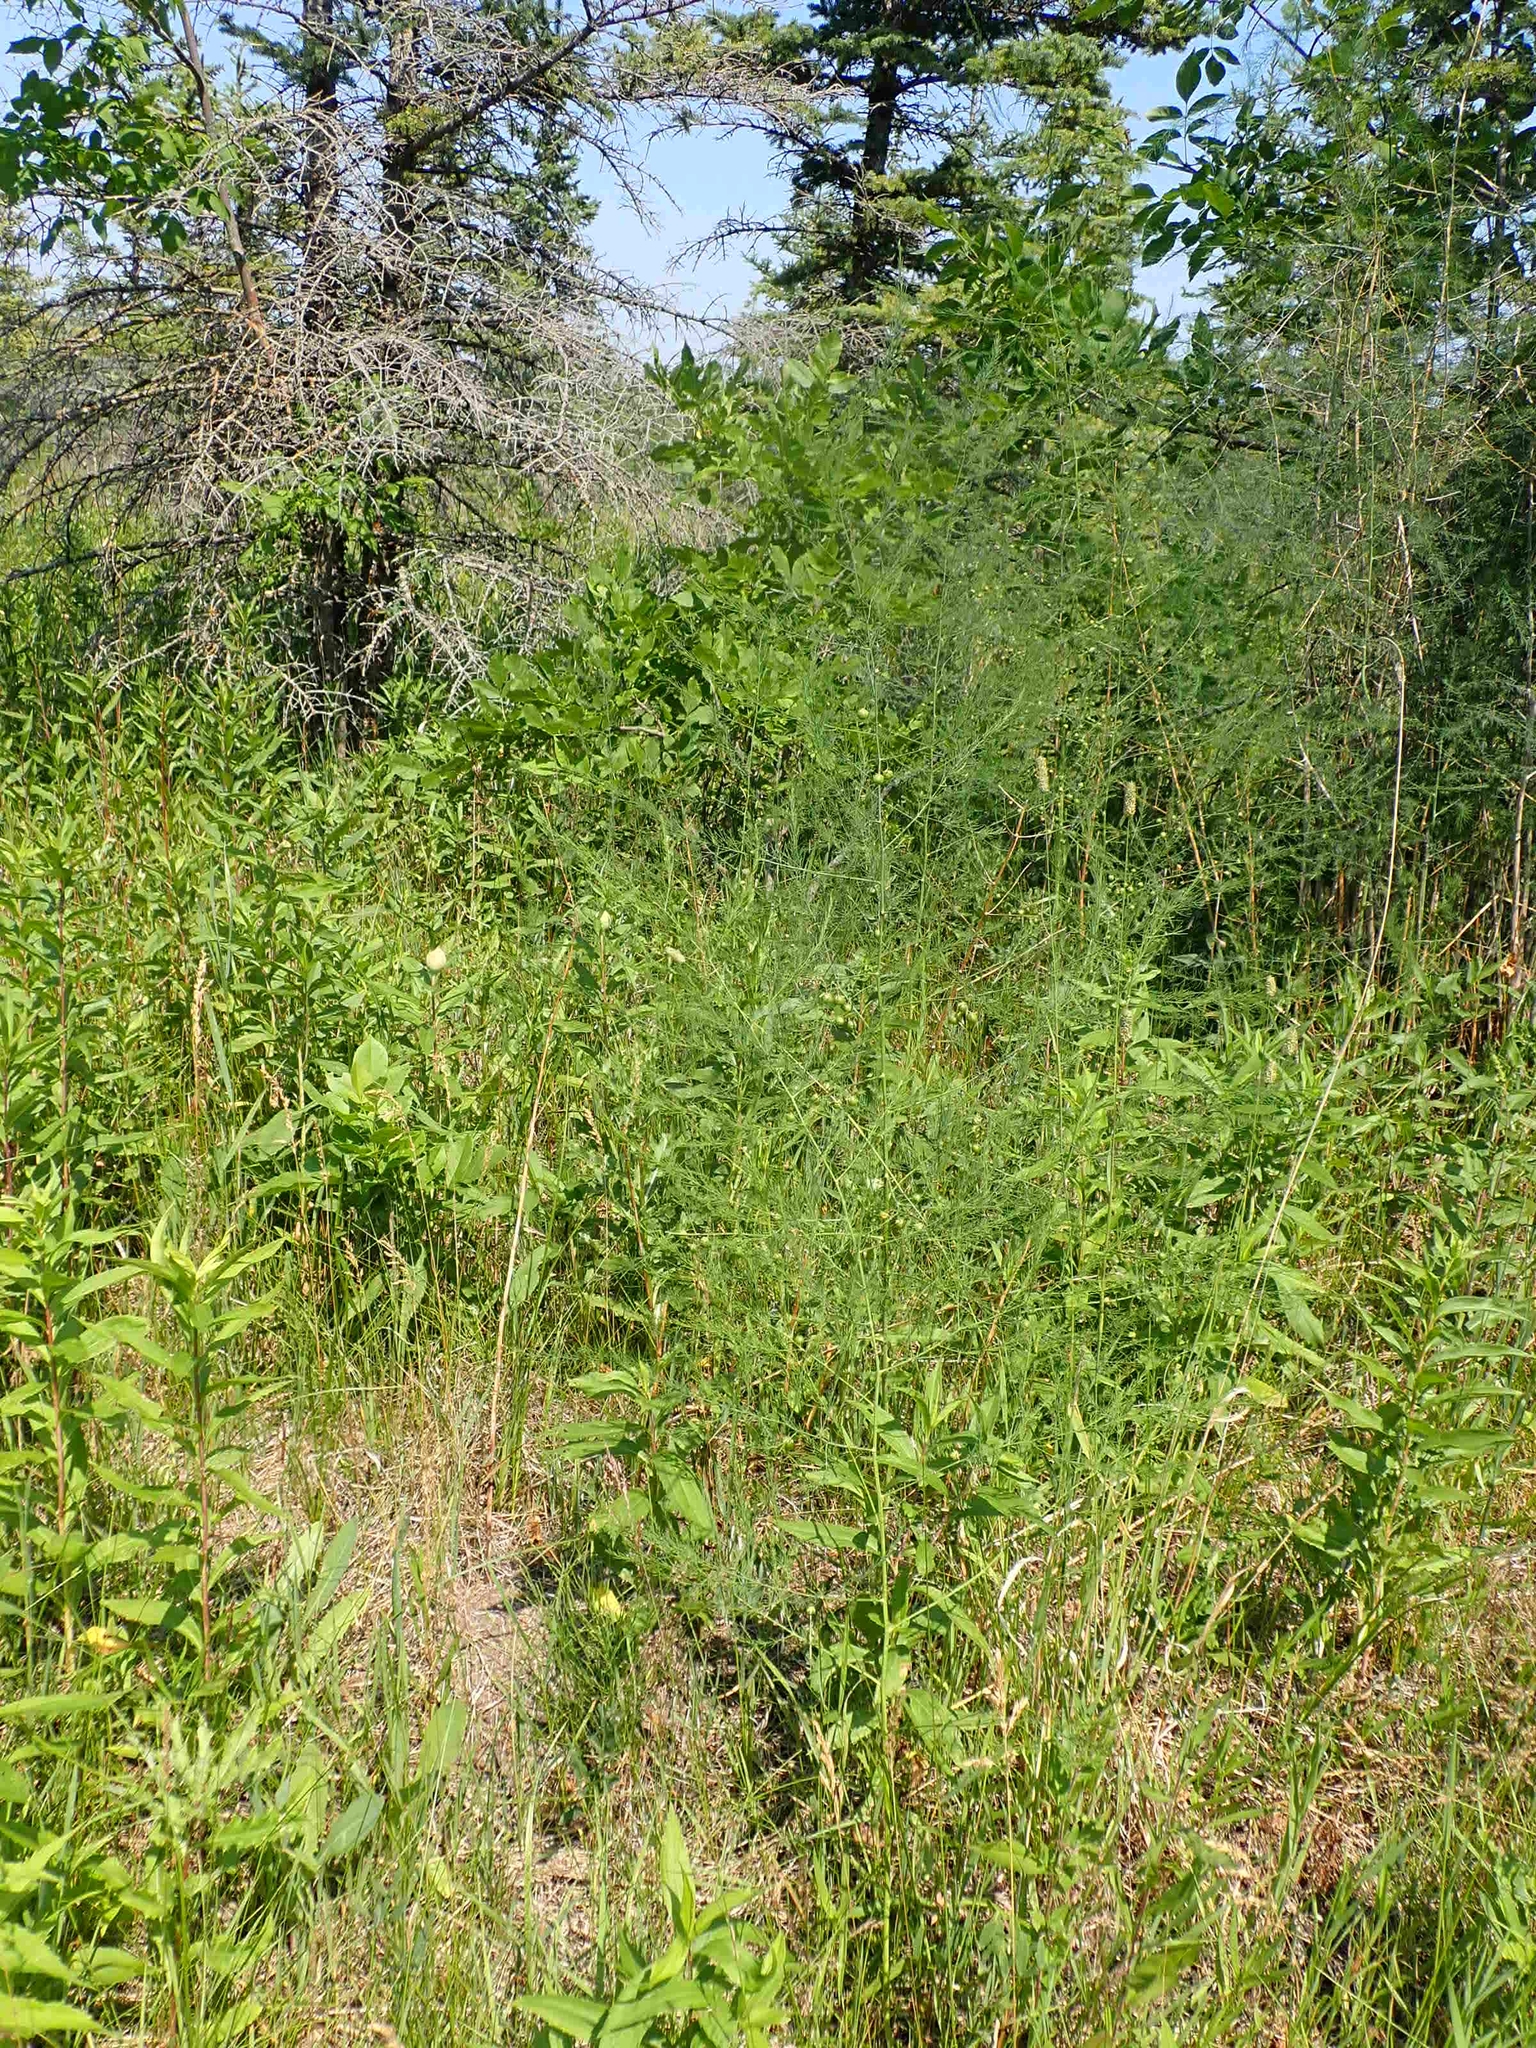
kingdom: Plantae
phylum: Tracheophyta
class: Liliopsida
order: Asparagales
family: Asparagaceae
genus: Asparagus
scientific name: Asparagus officinalis
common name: Garden asparagus
